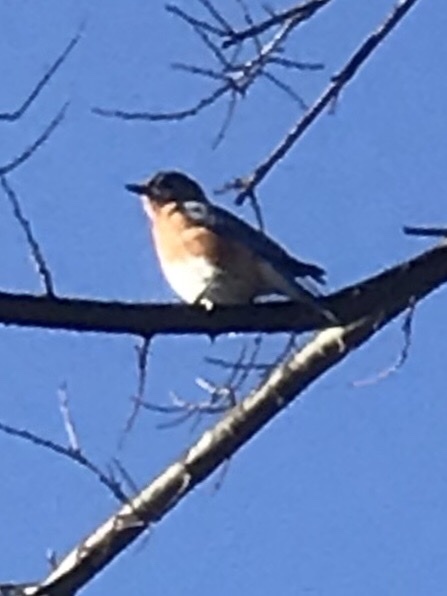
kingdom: Animalia
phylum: Chordata
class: Aves
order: Passeriformes
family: Turdidae
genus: Sialia
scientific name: Sialia sialis
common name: Eastern bluebird
